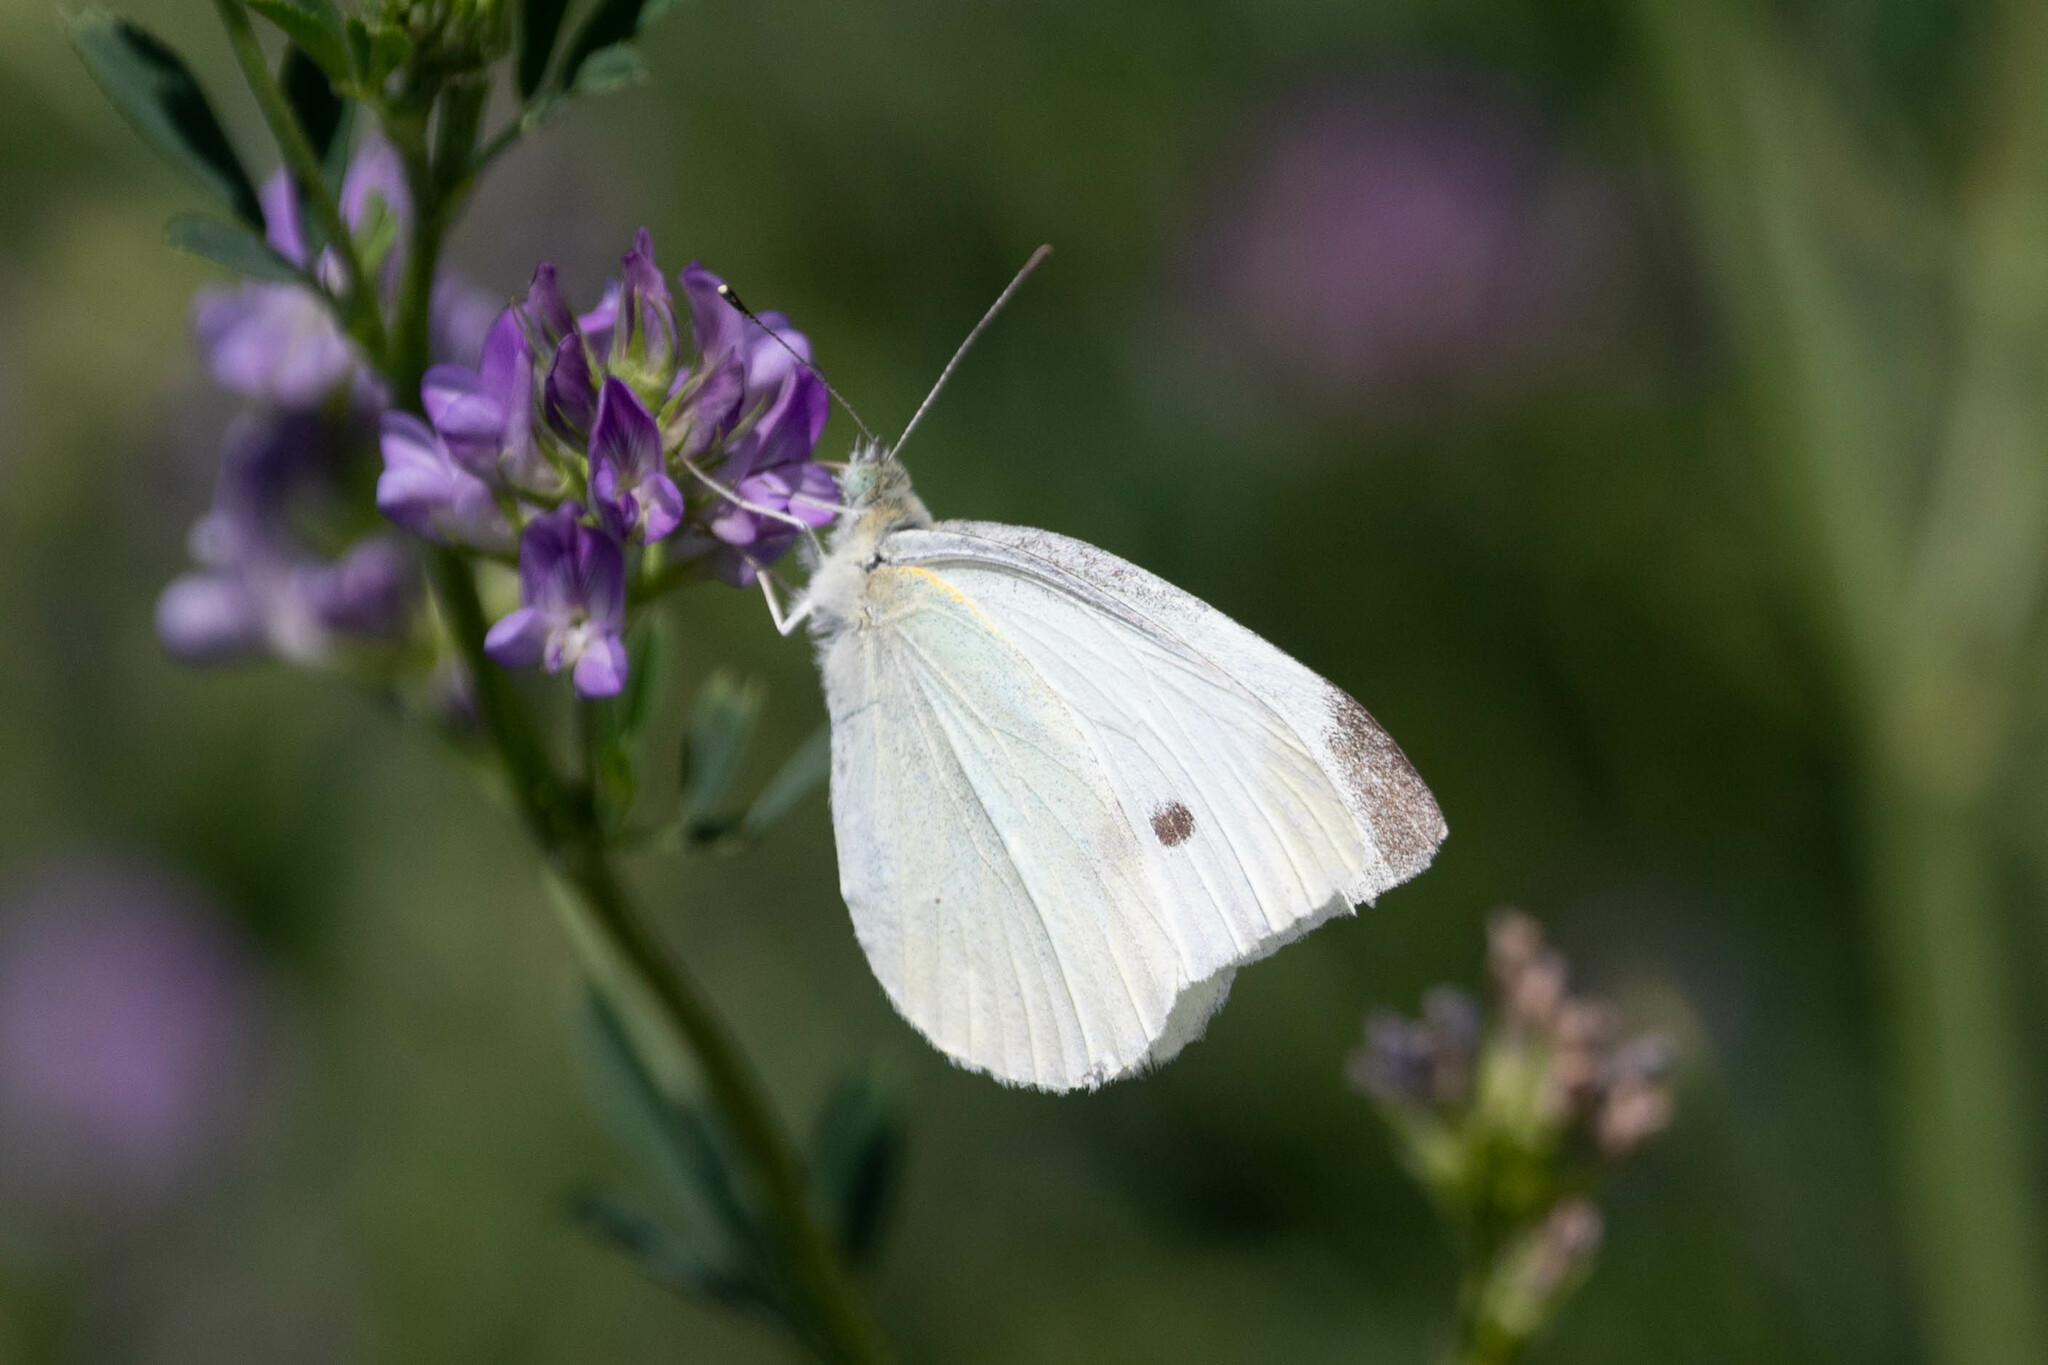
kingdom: Animalia
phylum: Arthropoda
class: Insecta
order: Lepidoptera
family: Pieridae
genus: Pieris
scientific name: Pieris rapae
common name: Small white
